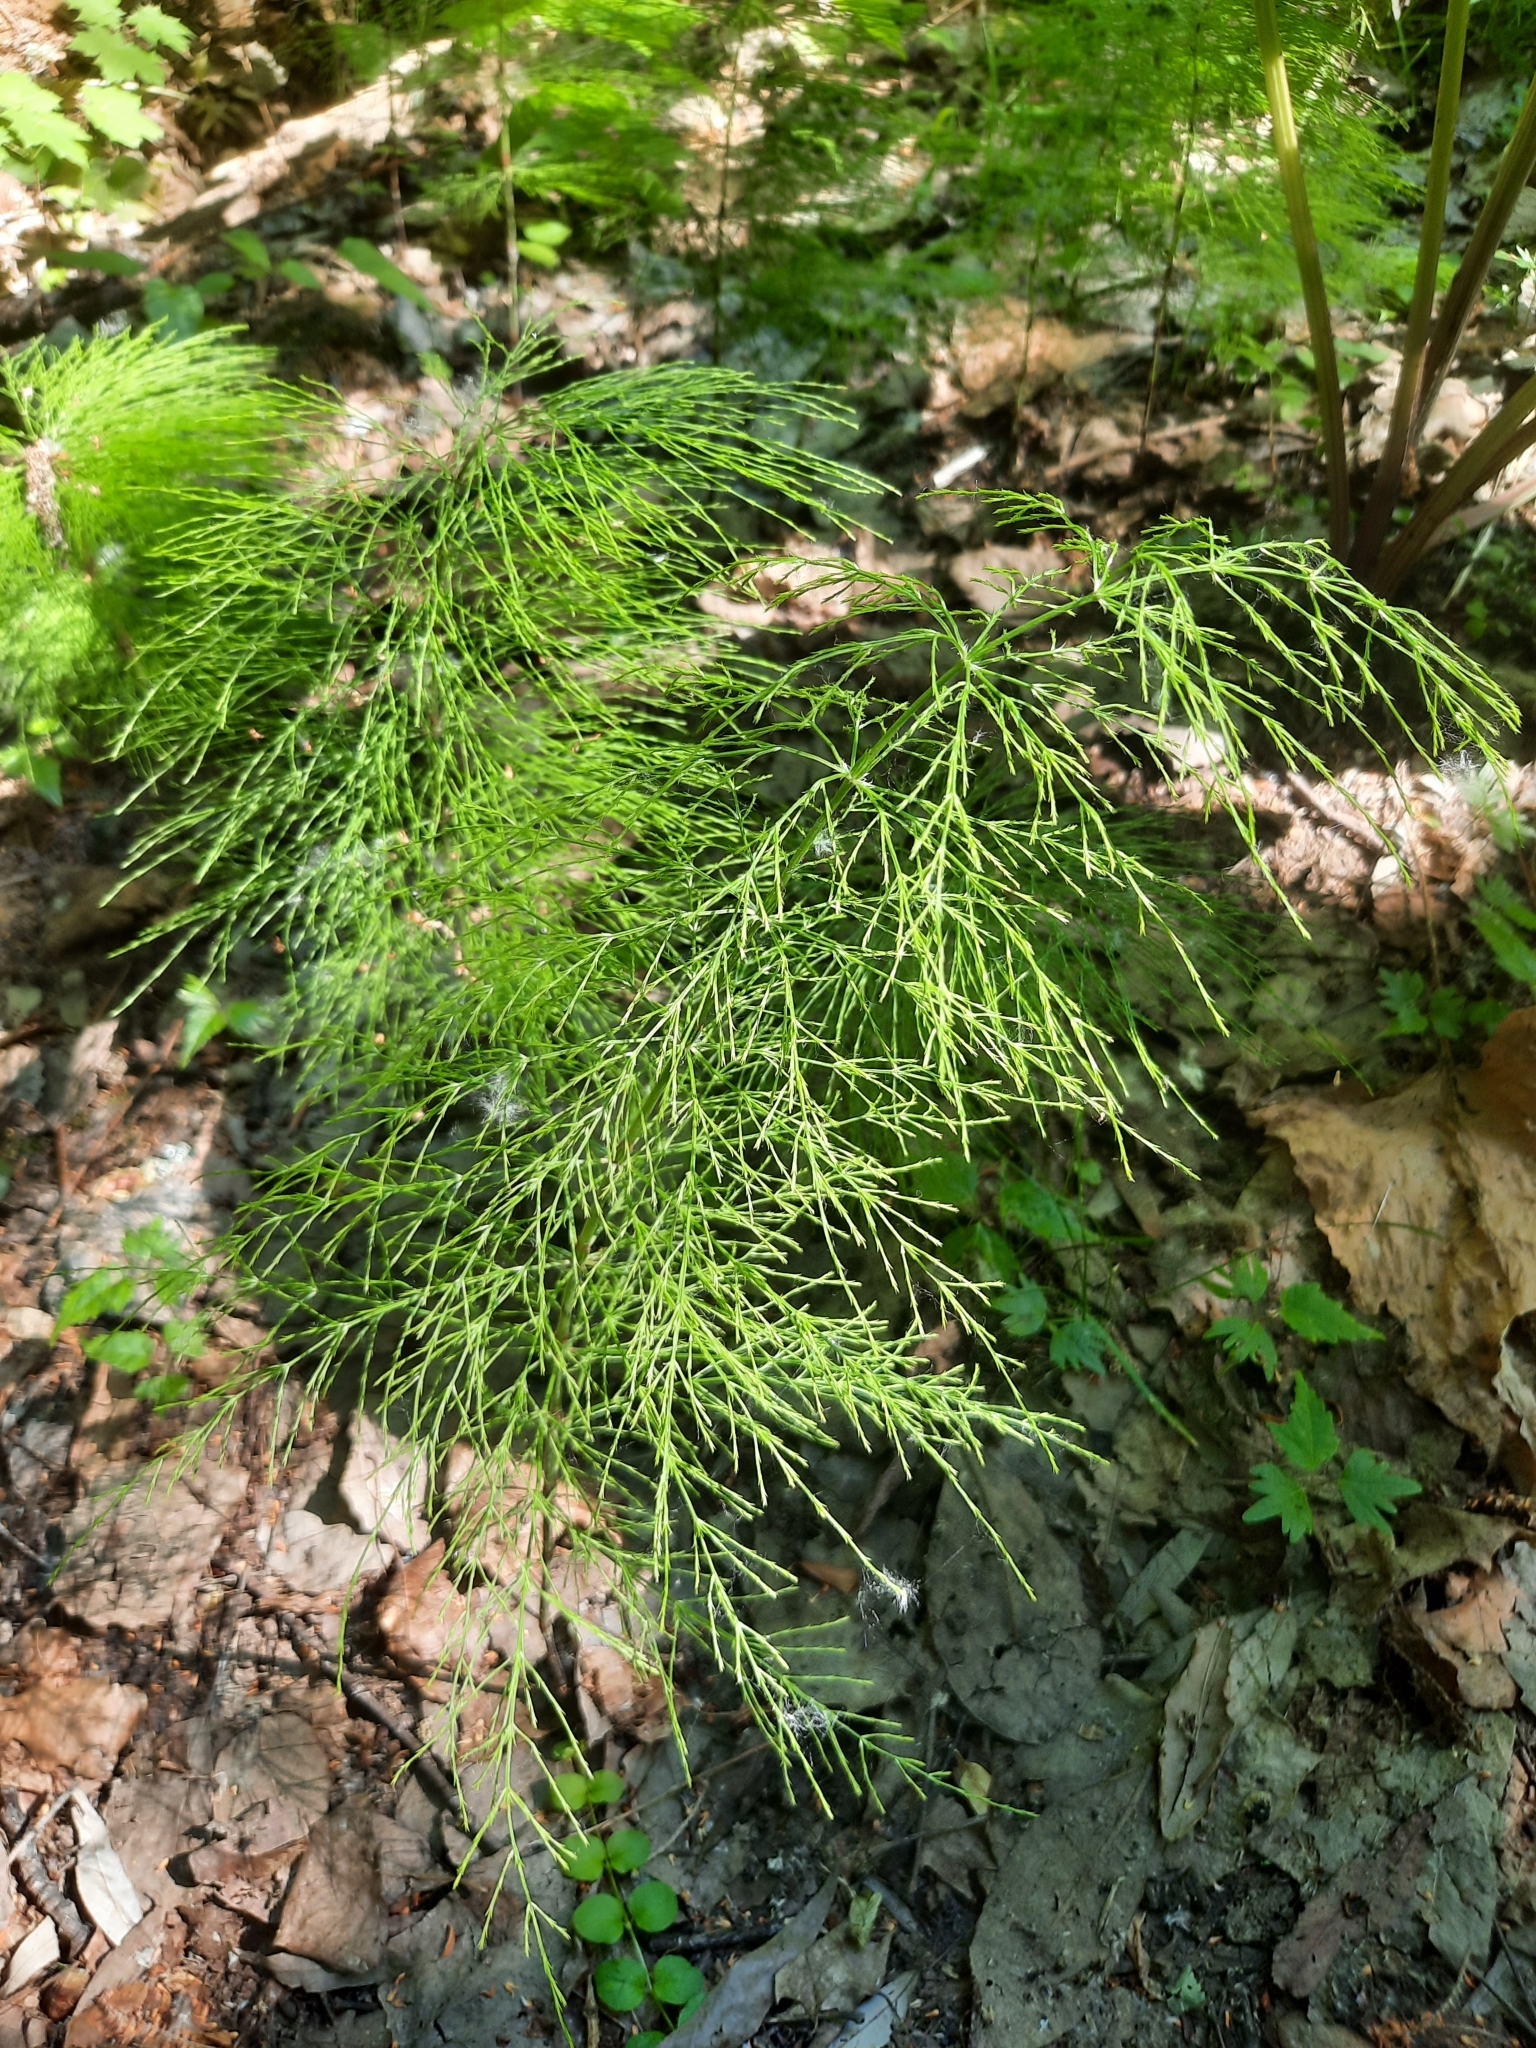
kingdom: Plantae
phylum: Tracheophyta
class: Polypodiopsida
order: Equisetales
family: Equisetaceae
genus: Equisetum
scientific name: Equisetum sylvaticum
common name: Wood horsetail
